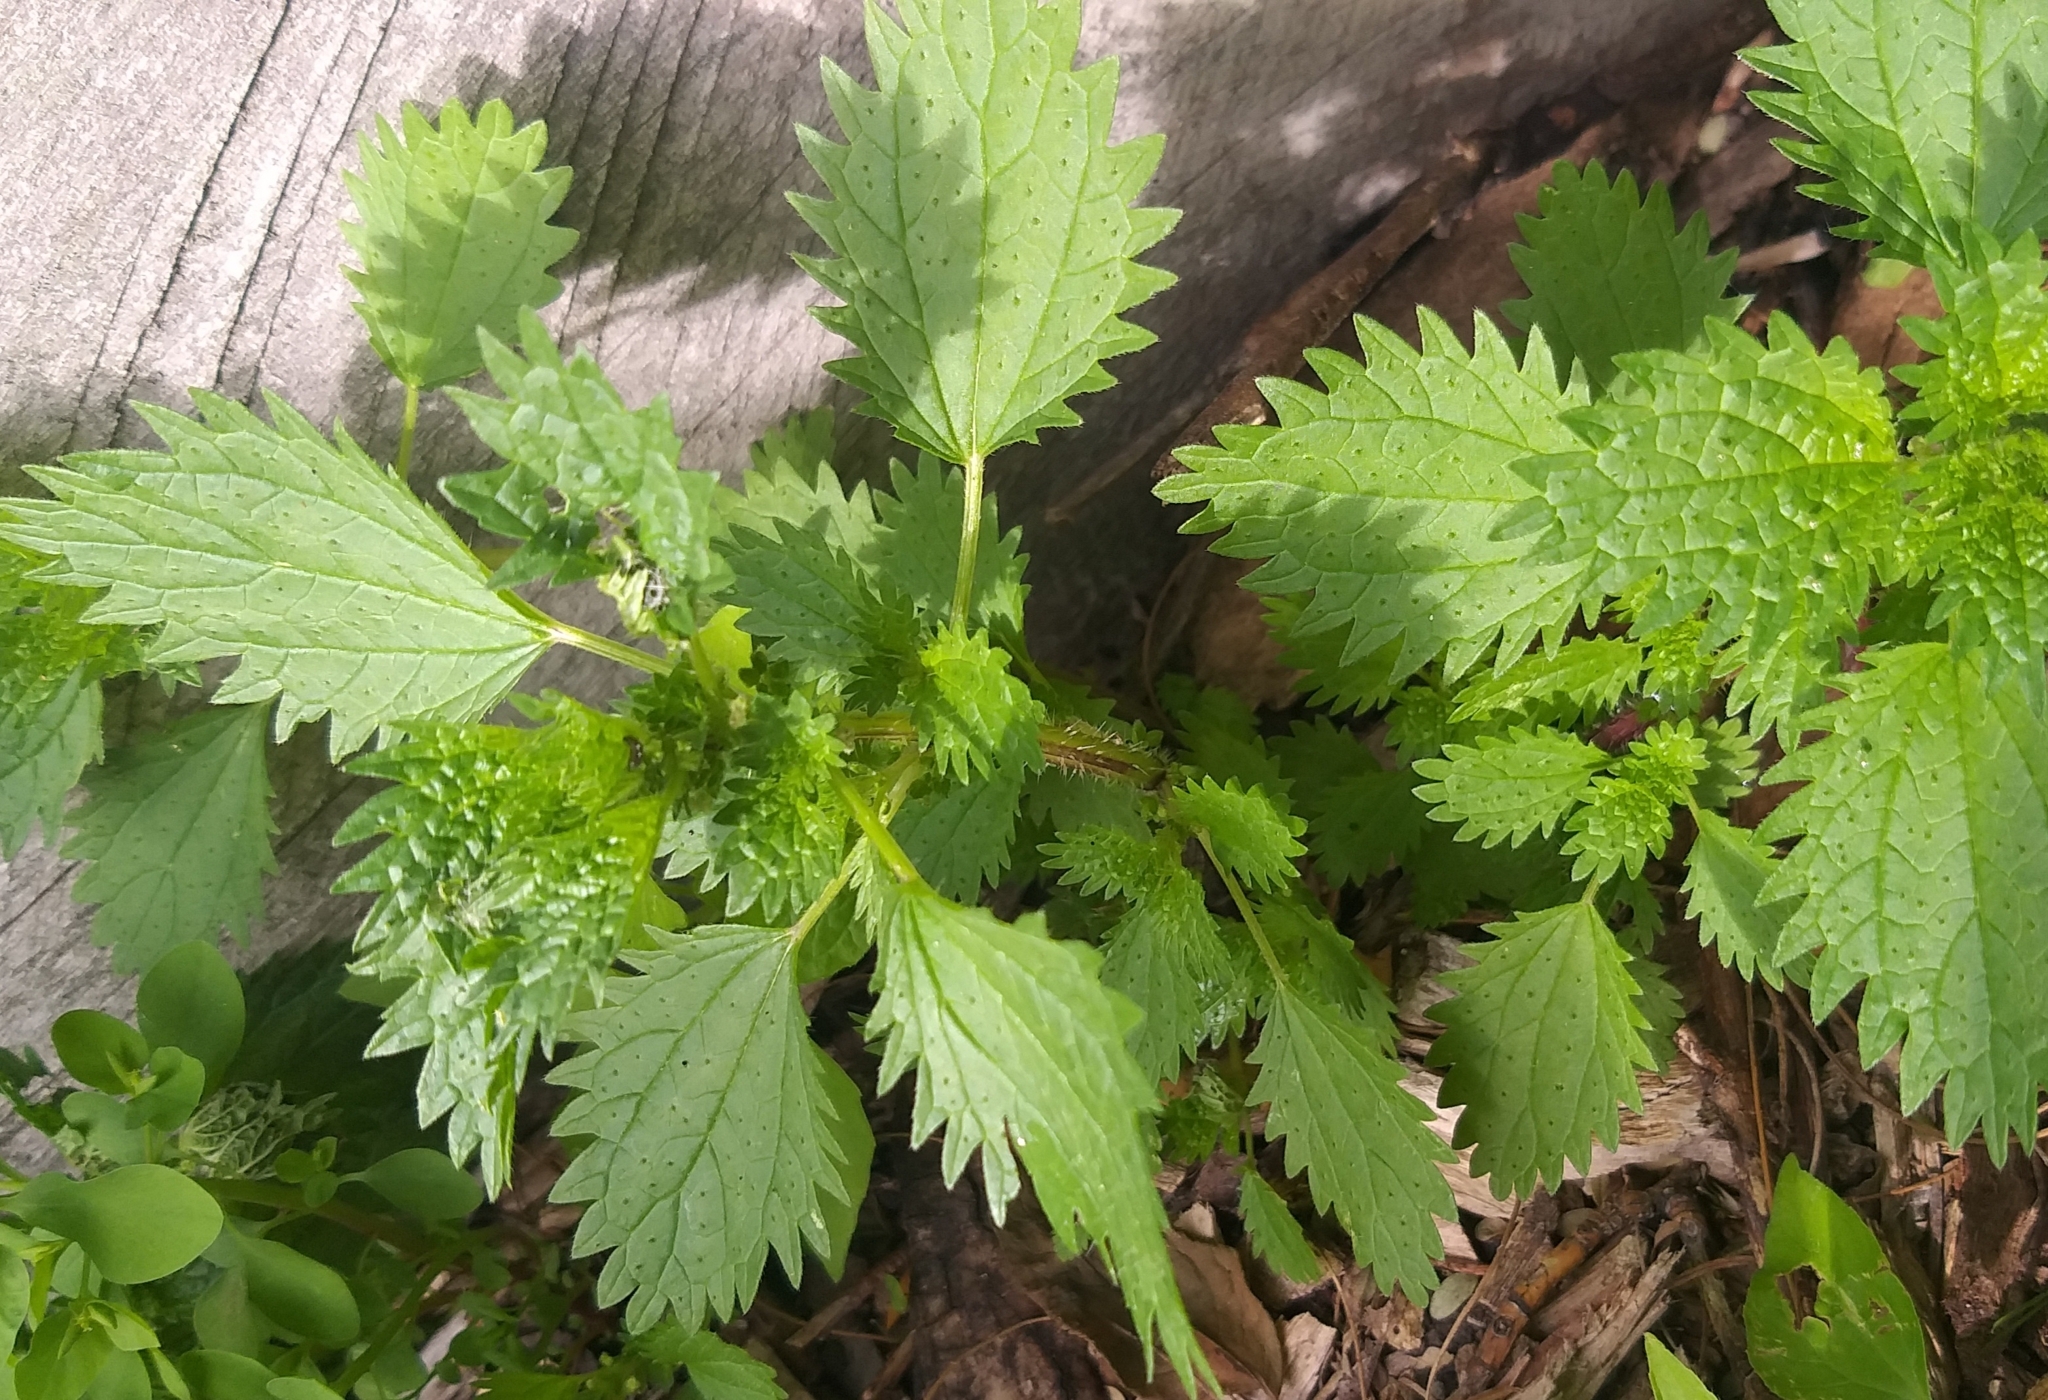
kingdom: Plantae
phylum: Tracheophyta
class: Magnoliopsida
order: Rosales
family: Urticaceae
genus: Urtica
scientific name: Urtica urens
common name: Dwarf nettle
